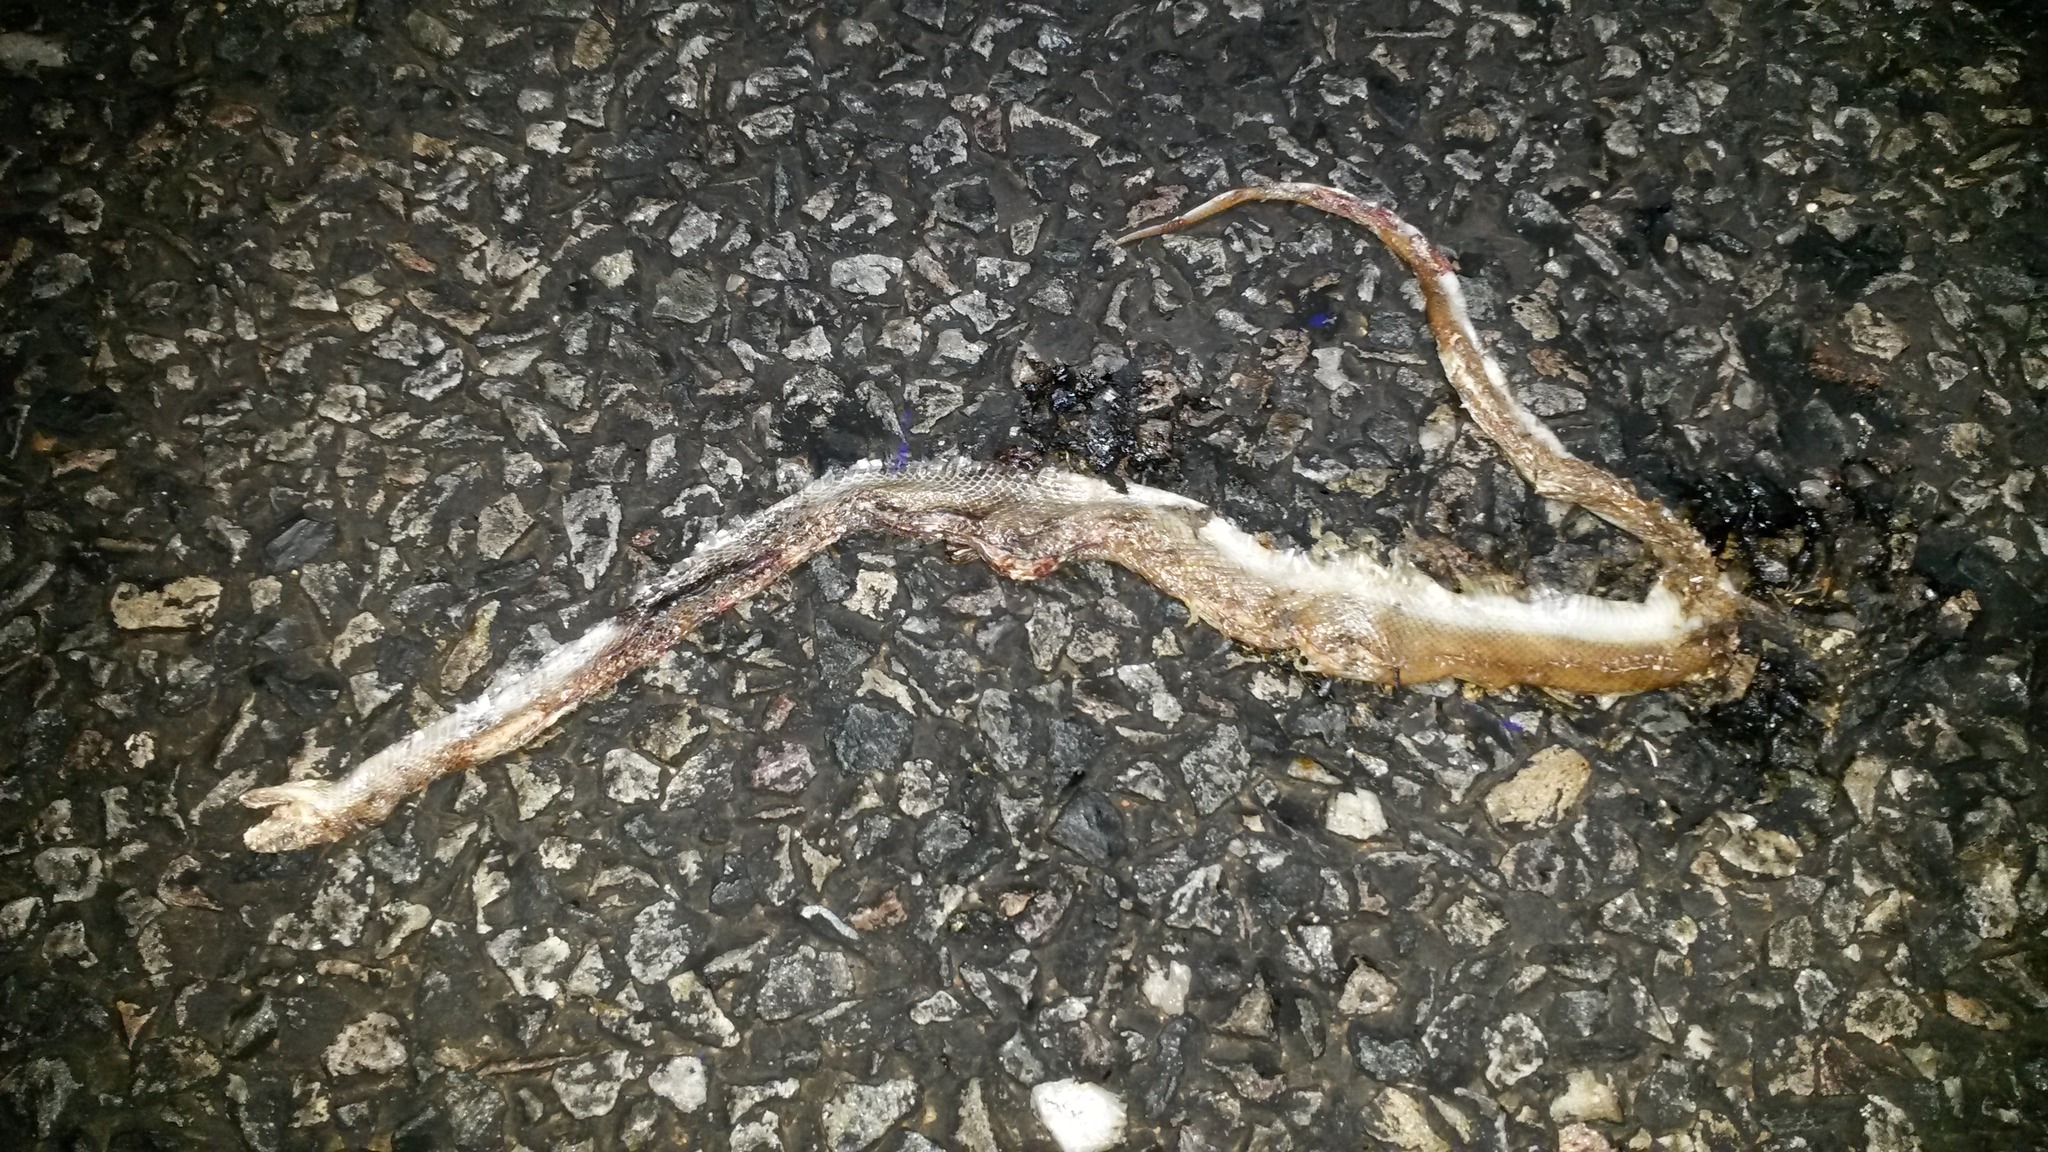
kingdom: Animalia
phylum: Chordata
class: Squamata
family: Lamprophiidae
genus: Boaedon
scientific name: Boaedon capensis
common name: Brown house snake
